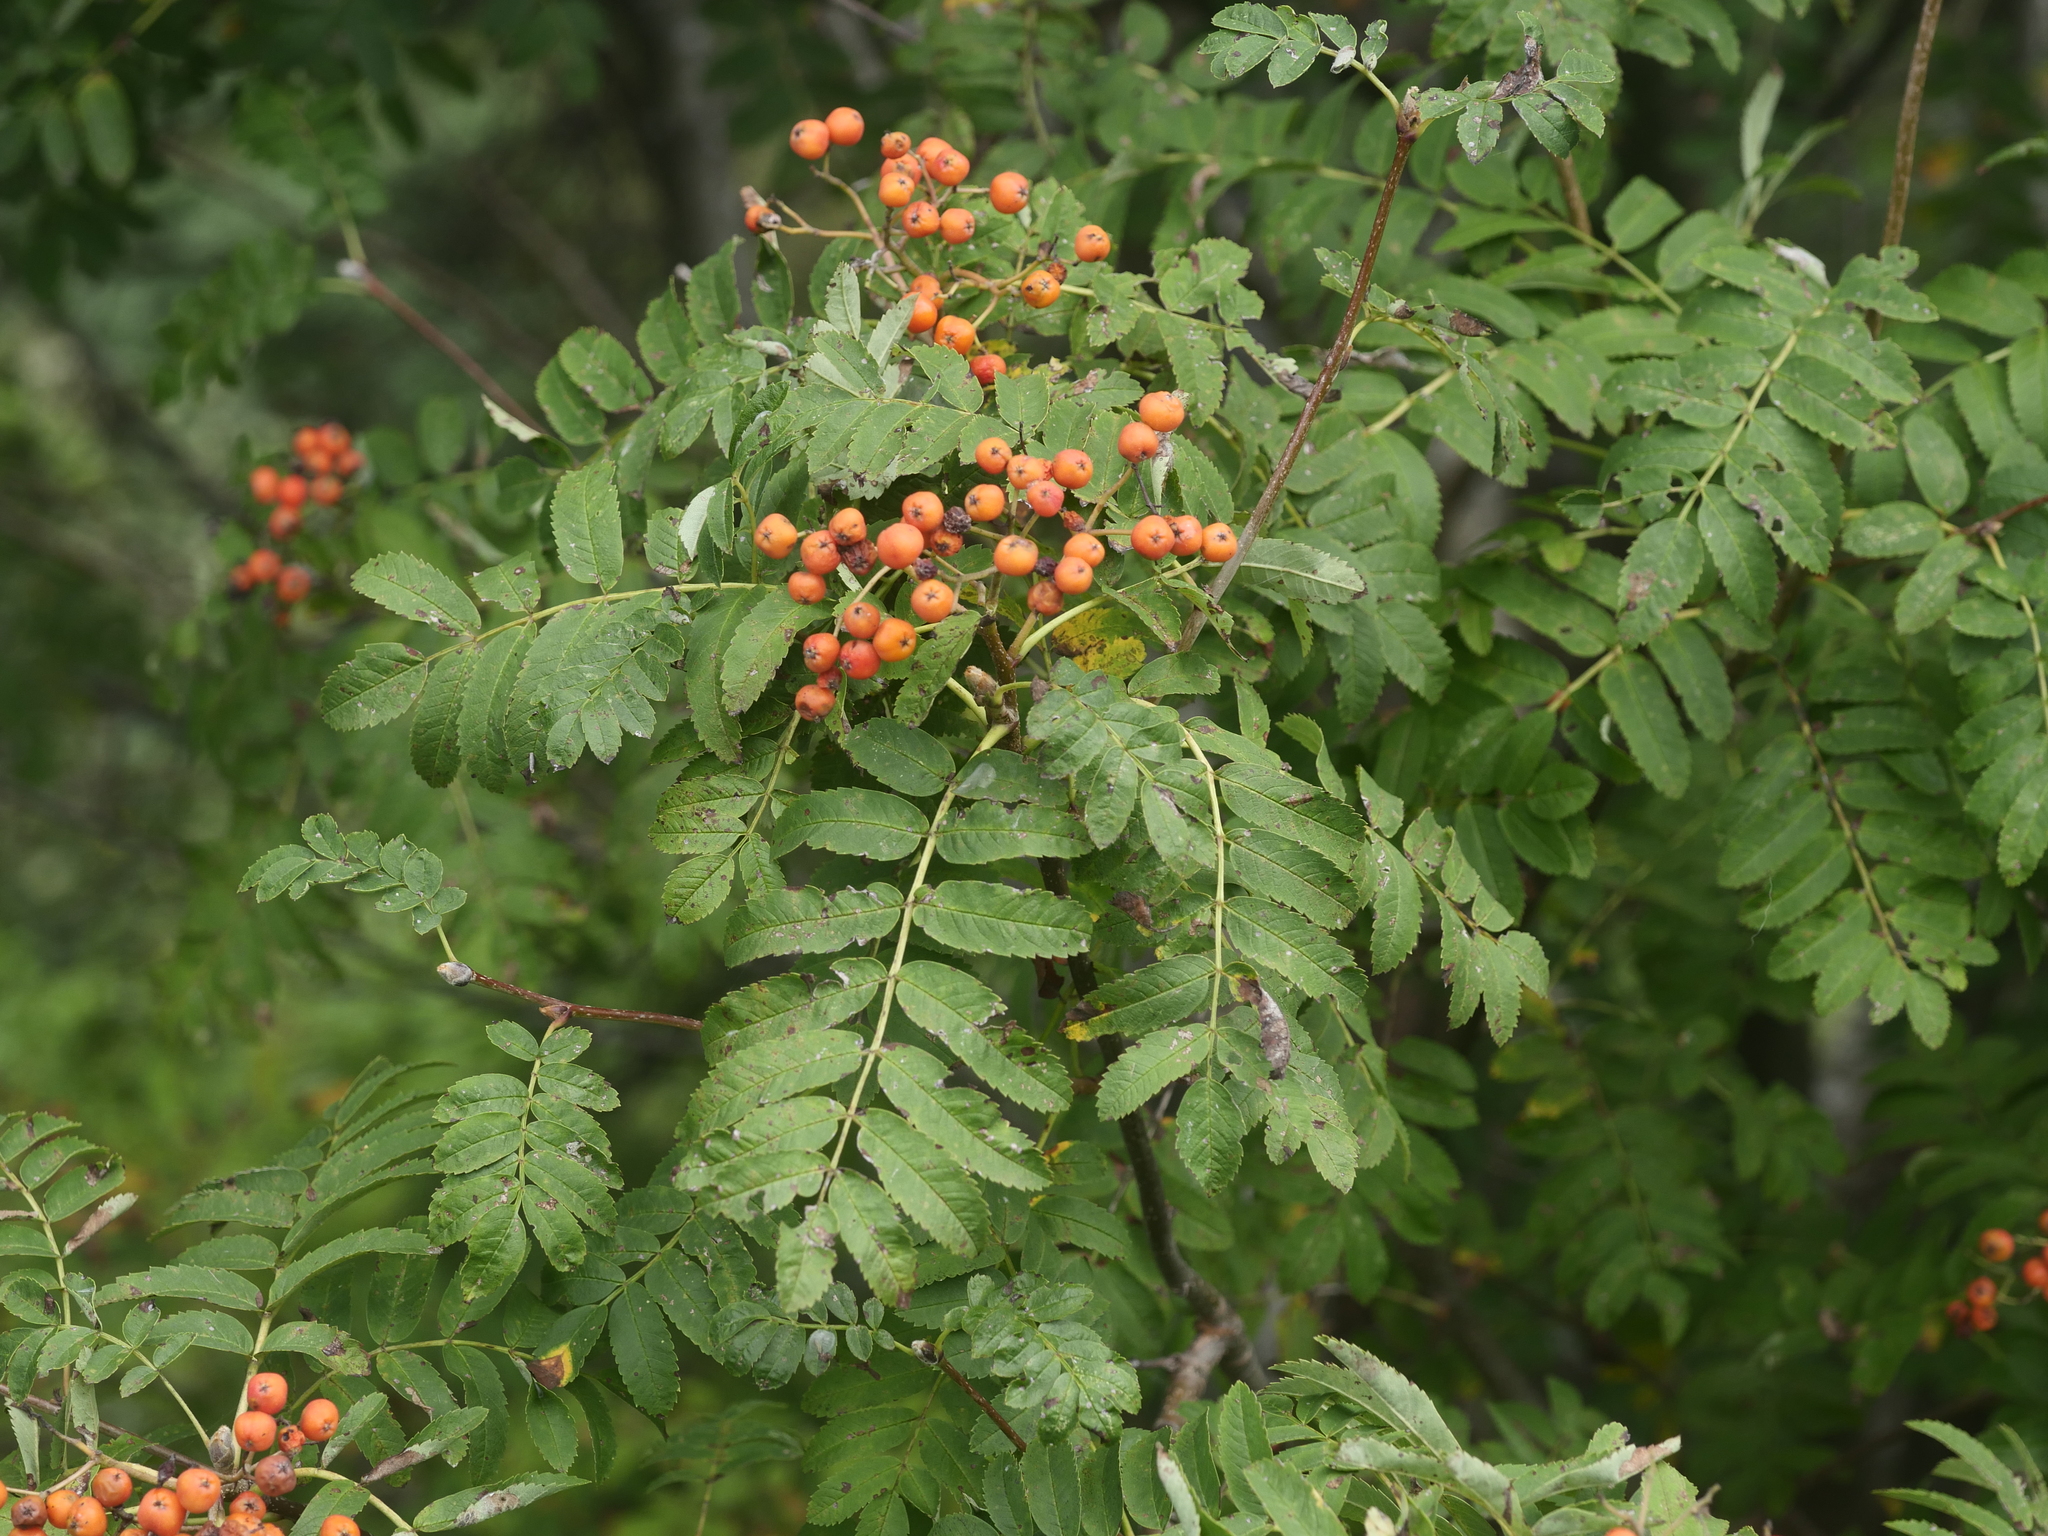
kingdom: Plantae
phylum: Tracheophyta
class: Magnoliopsida
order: Rosales
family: Rosaceae
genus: Sorbus
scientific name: Sorbus aucuparia
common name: Rowan
